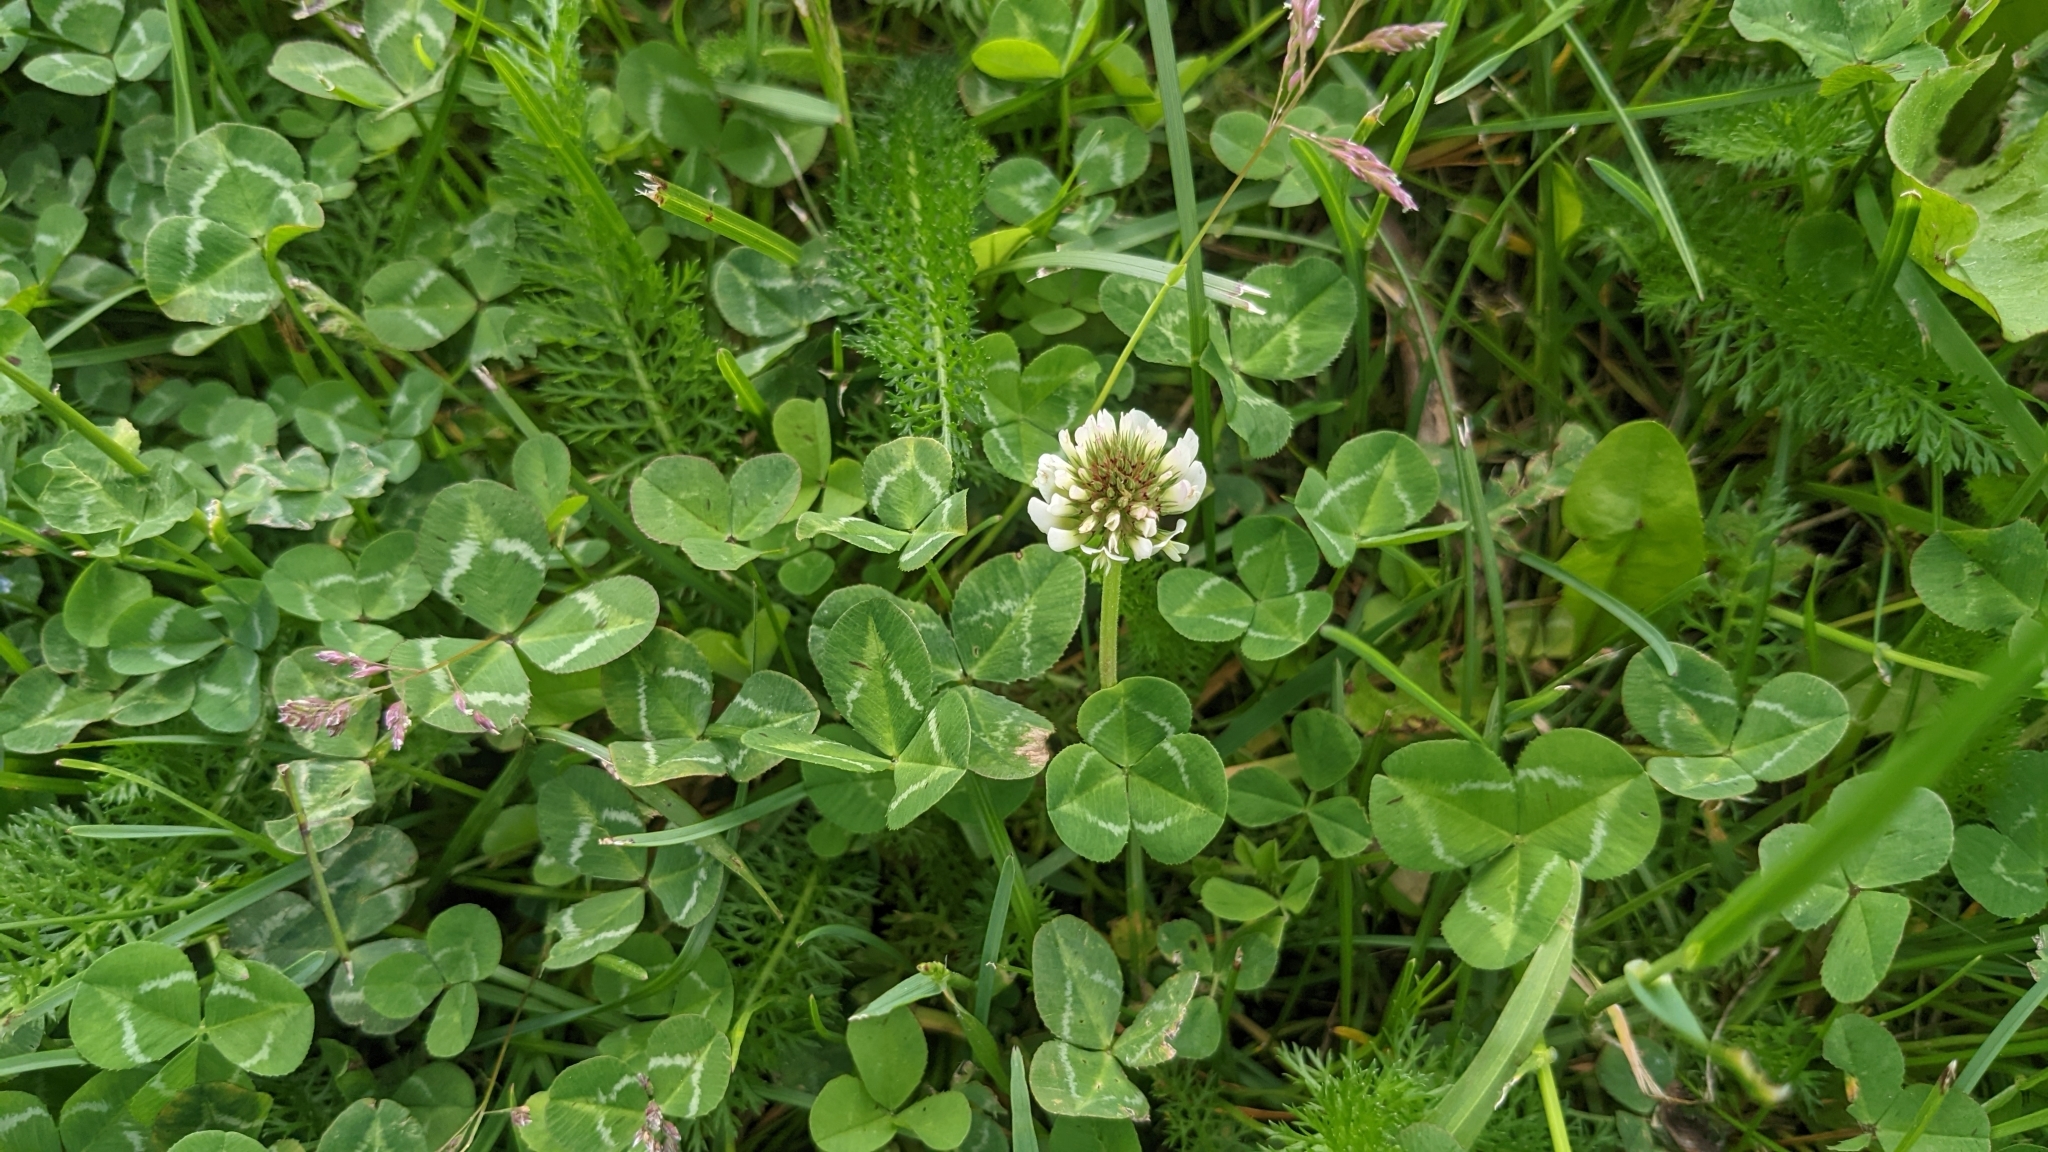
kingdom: Plantae
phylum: Tracheophyta
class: Magnoliopsida
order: Fabales
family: Fabaceae
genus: Trifolium
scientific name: Trifolium repens
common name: White clover
